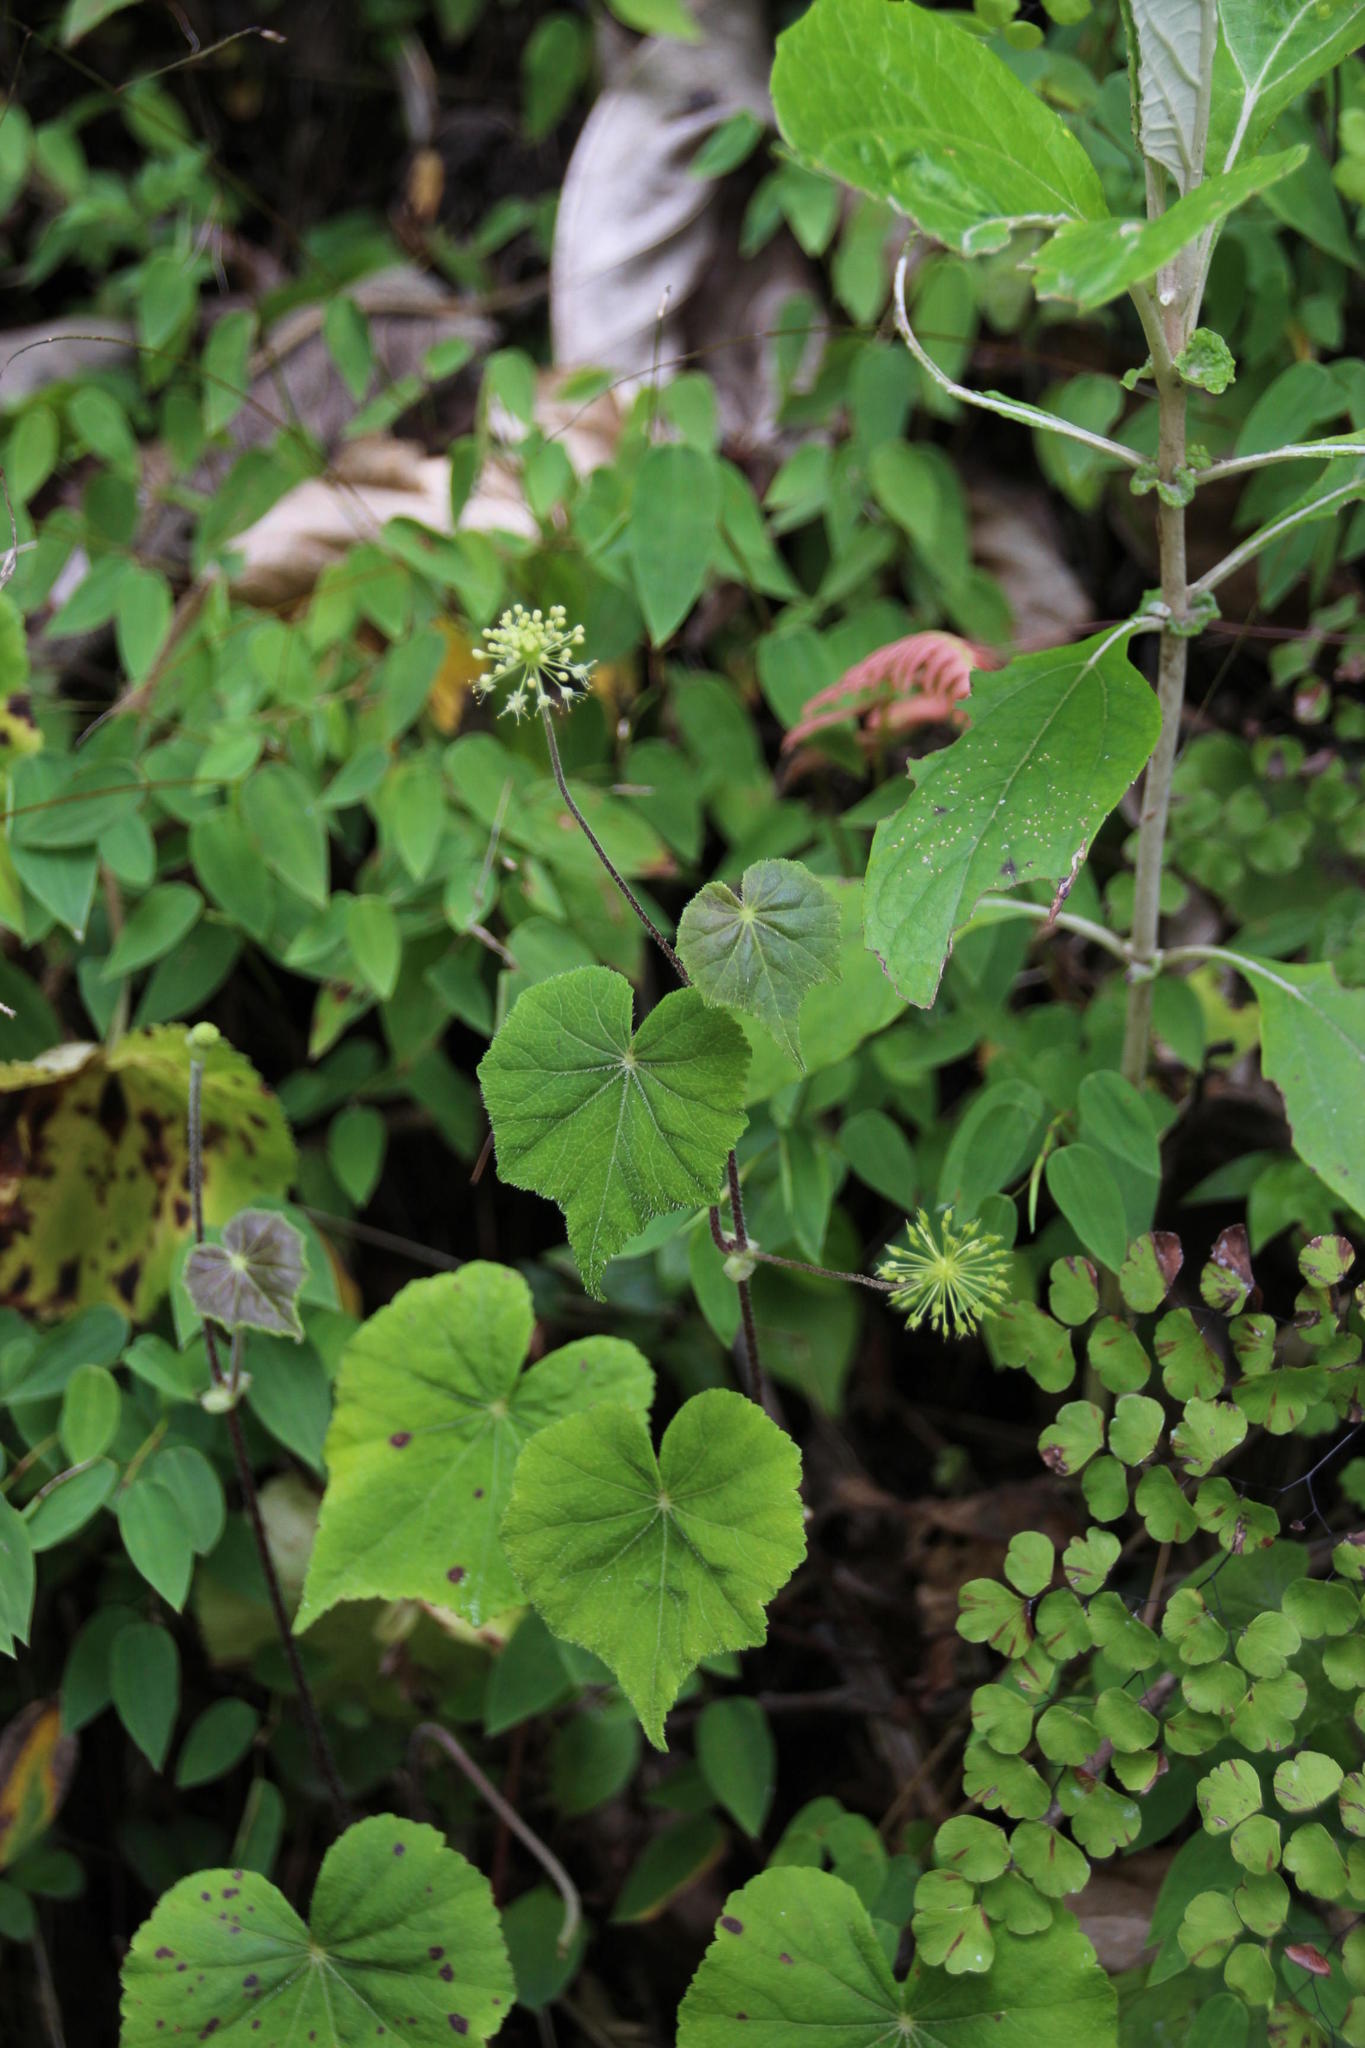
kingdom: Plantae
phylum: Tracheophyta
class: Magnoliopsida
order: Apiales
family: Araliaceae
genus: Hydrocotyle
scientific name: Hydrocotyle acutifolia
